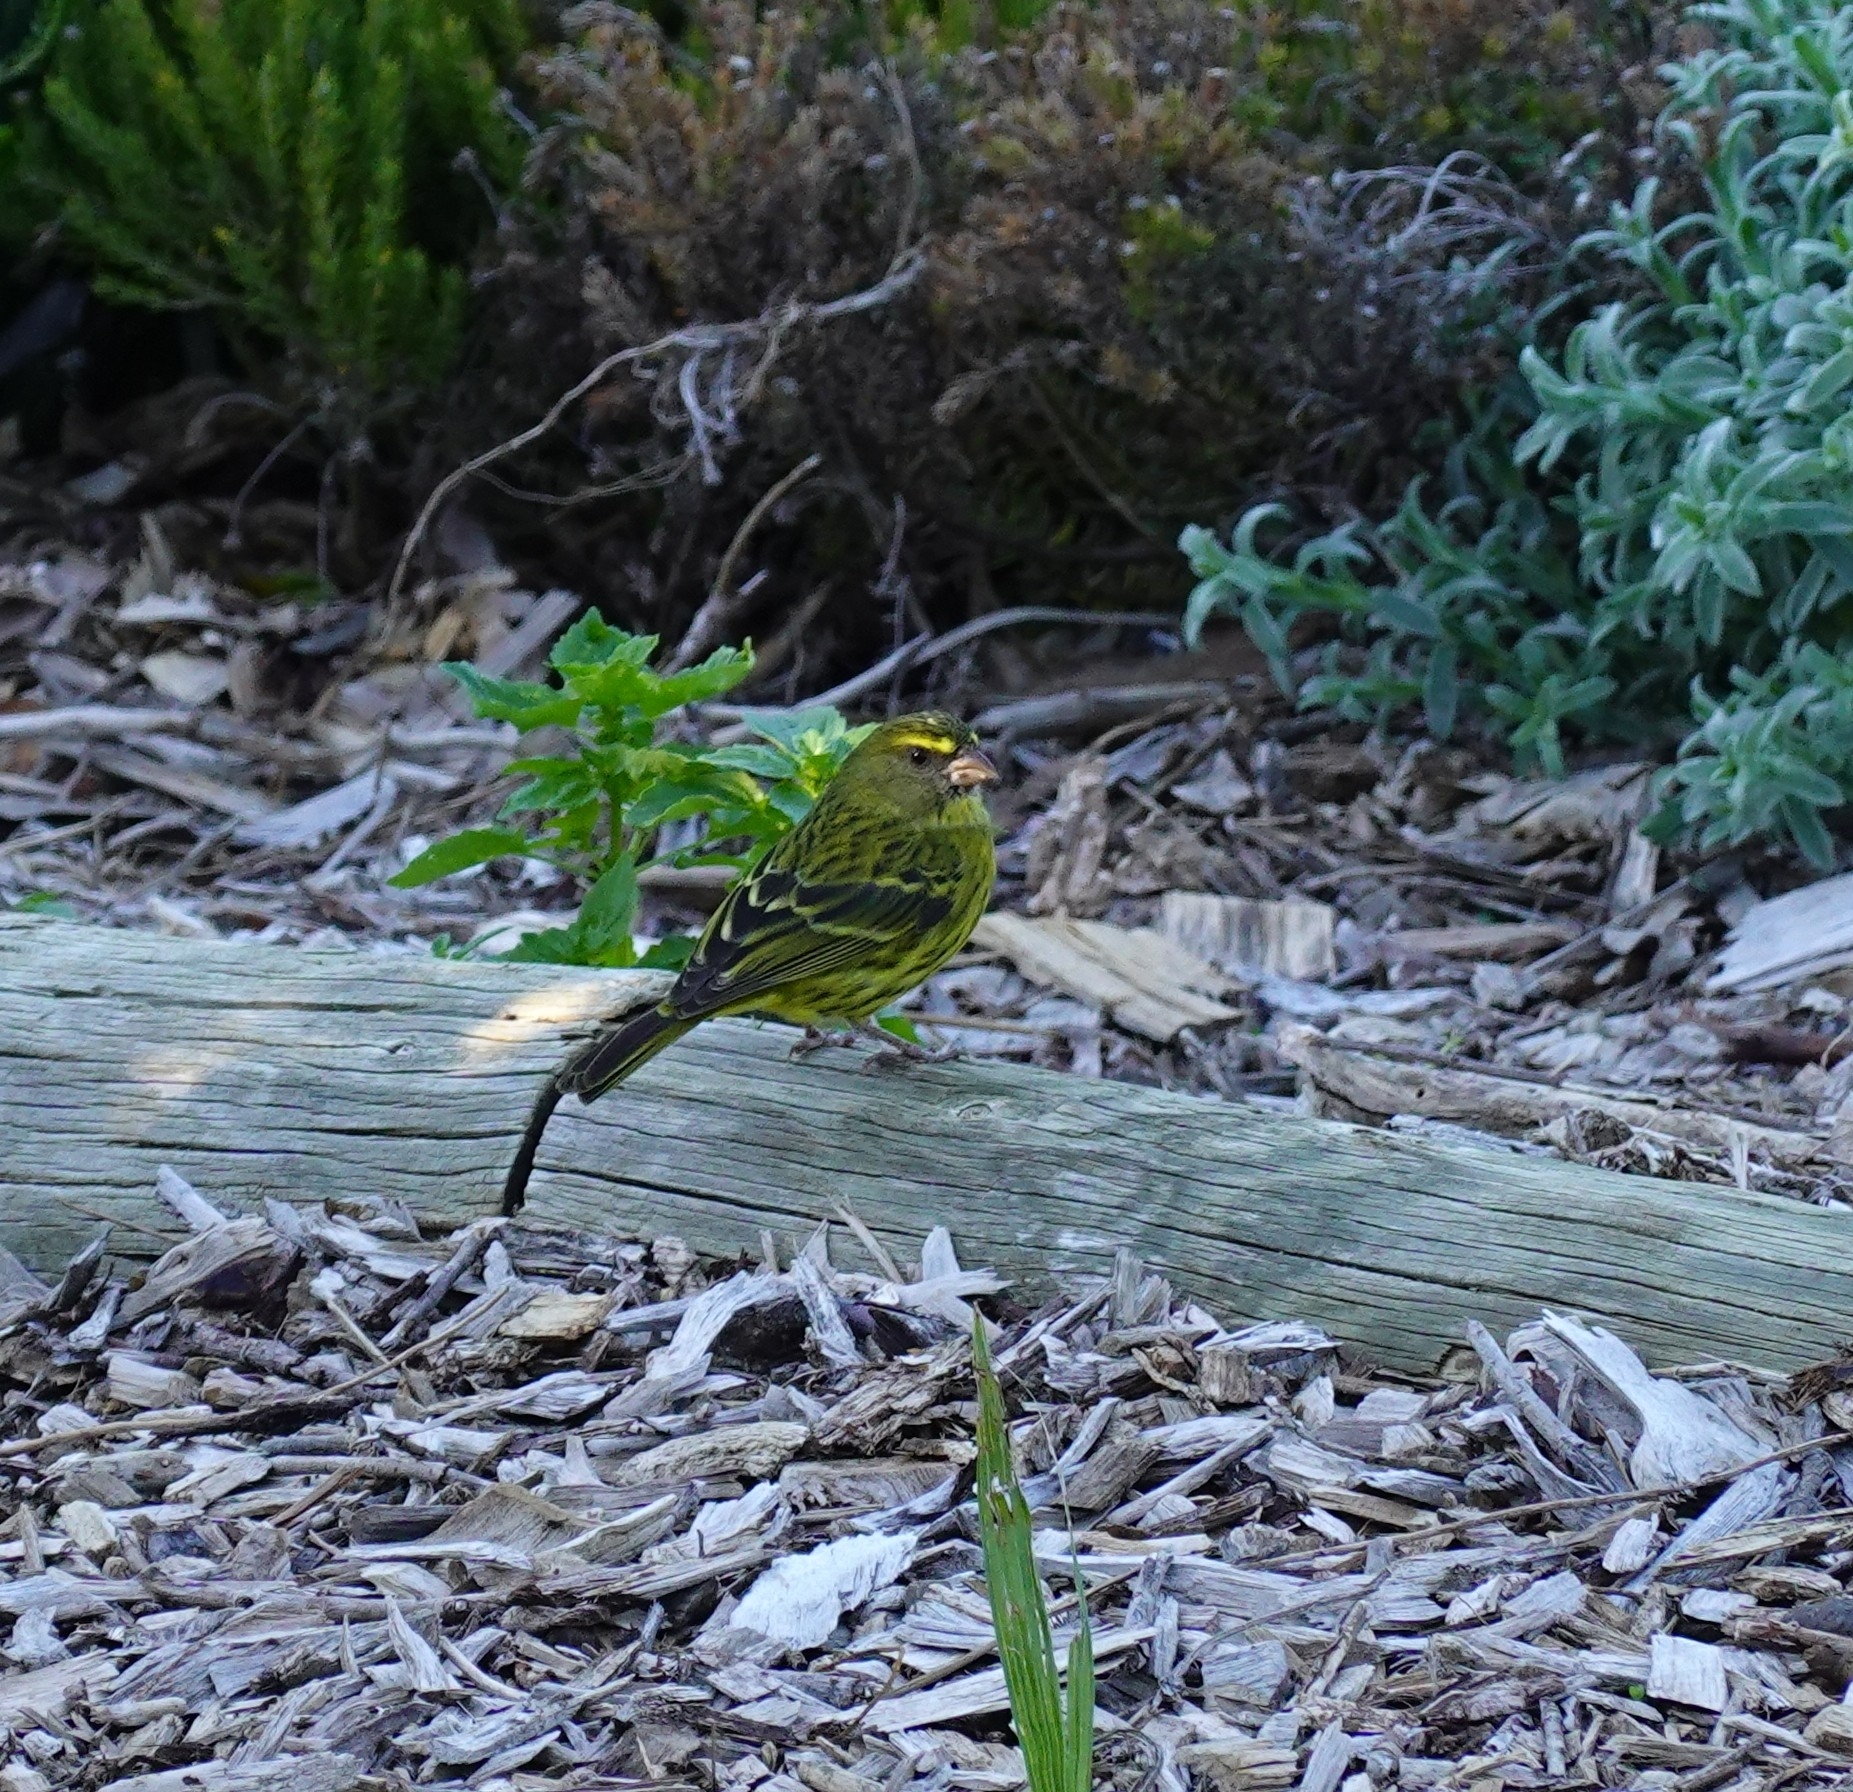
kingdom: Animalia
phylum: Chordata
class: Aves
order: Passeriformes
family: Fringillidae
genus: Crithagra
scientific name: Crithagra scotops
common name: Forest canary
